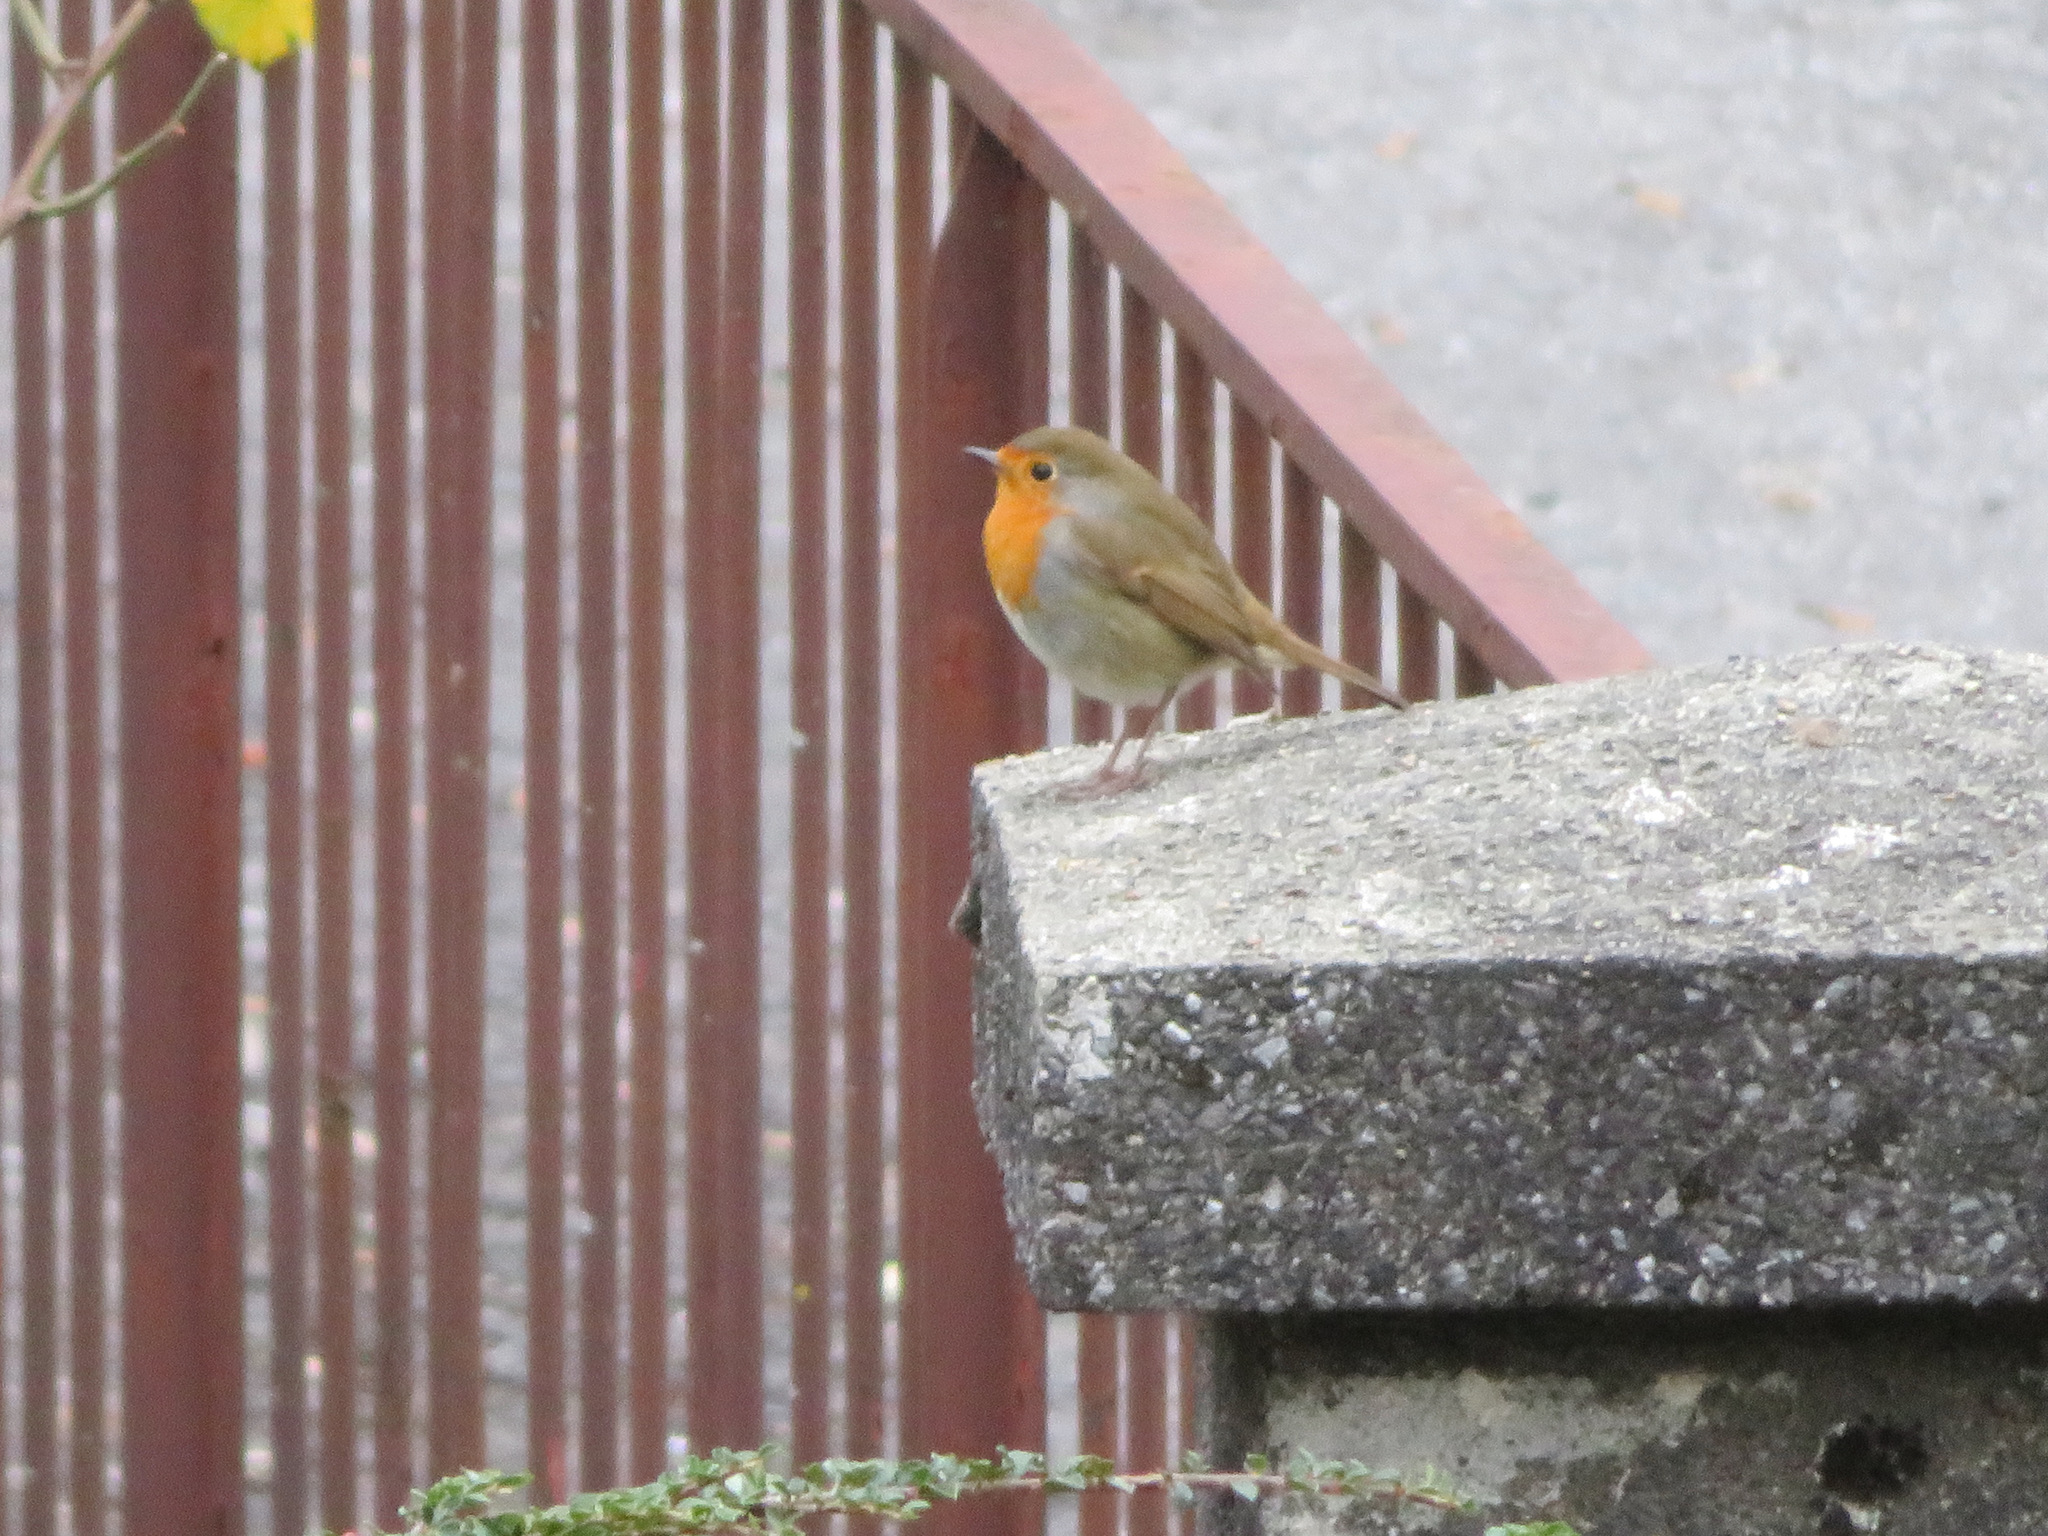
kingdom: Animalia
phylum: Chordata
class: Aves
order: Passeriformes
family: Muscicapidae
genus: Erithacus
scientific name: Erithacus rubecula
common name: European robin
